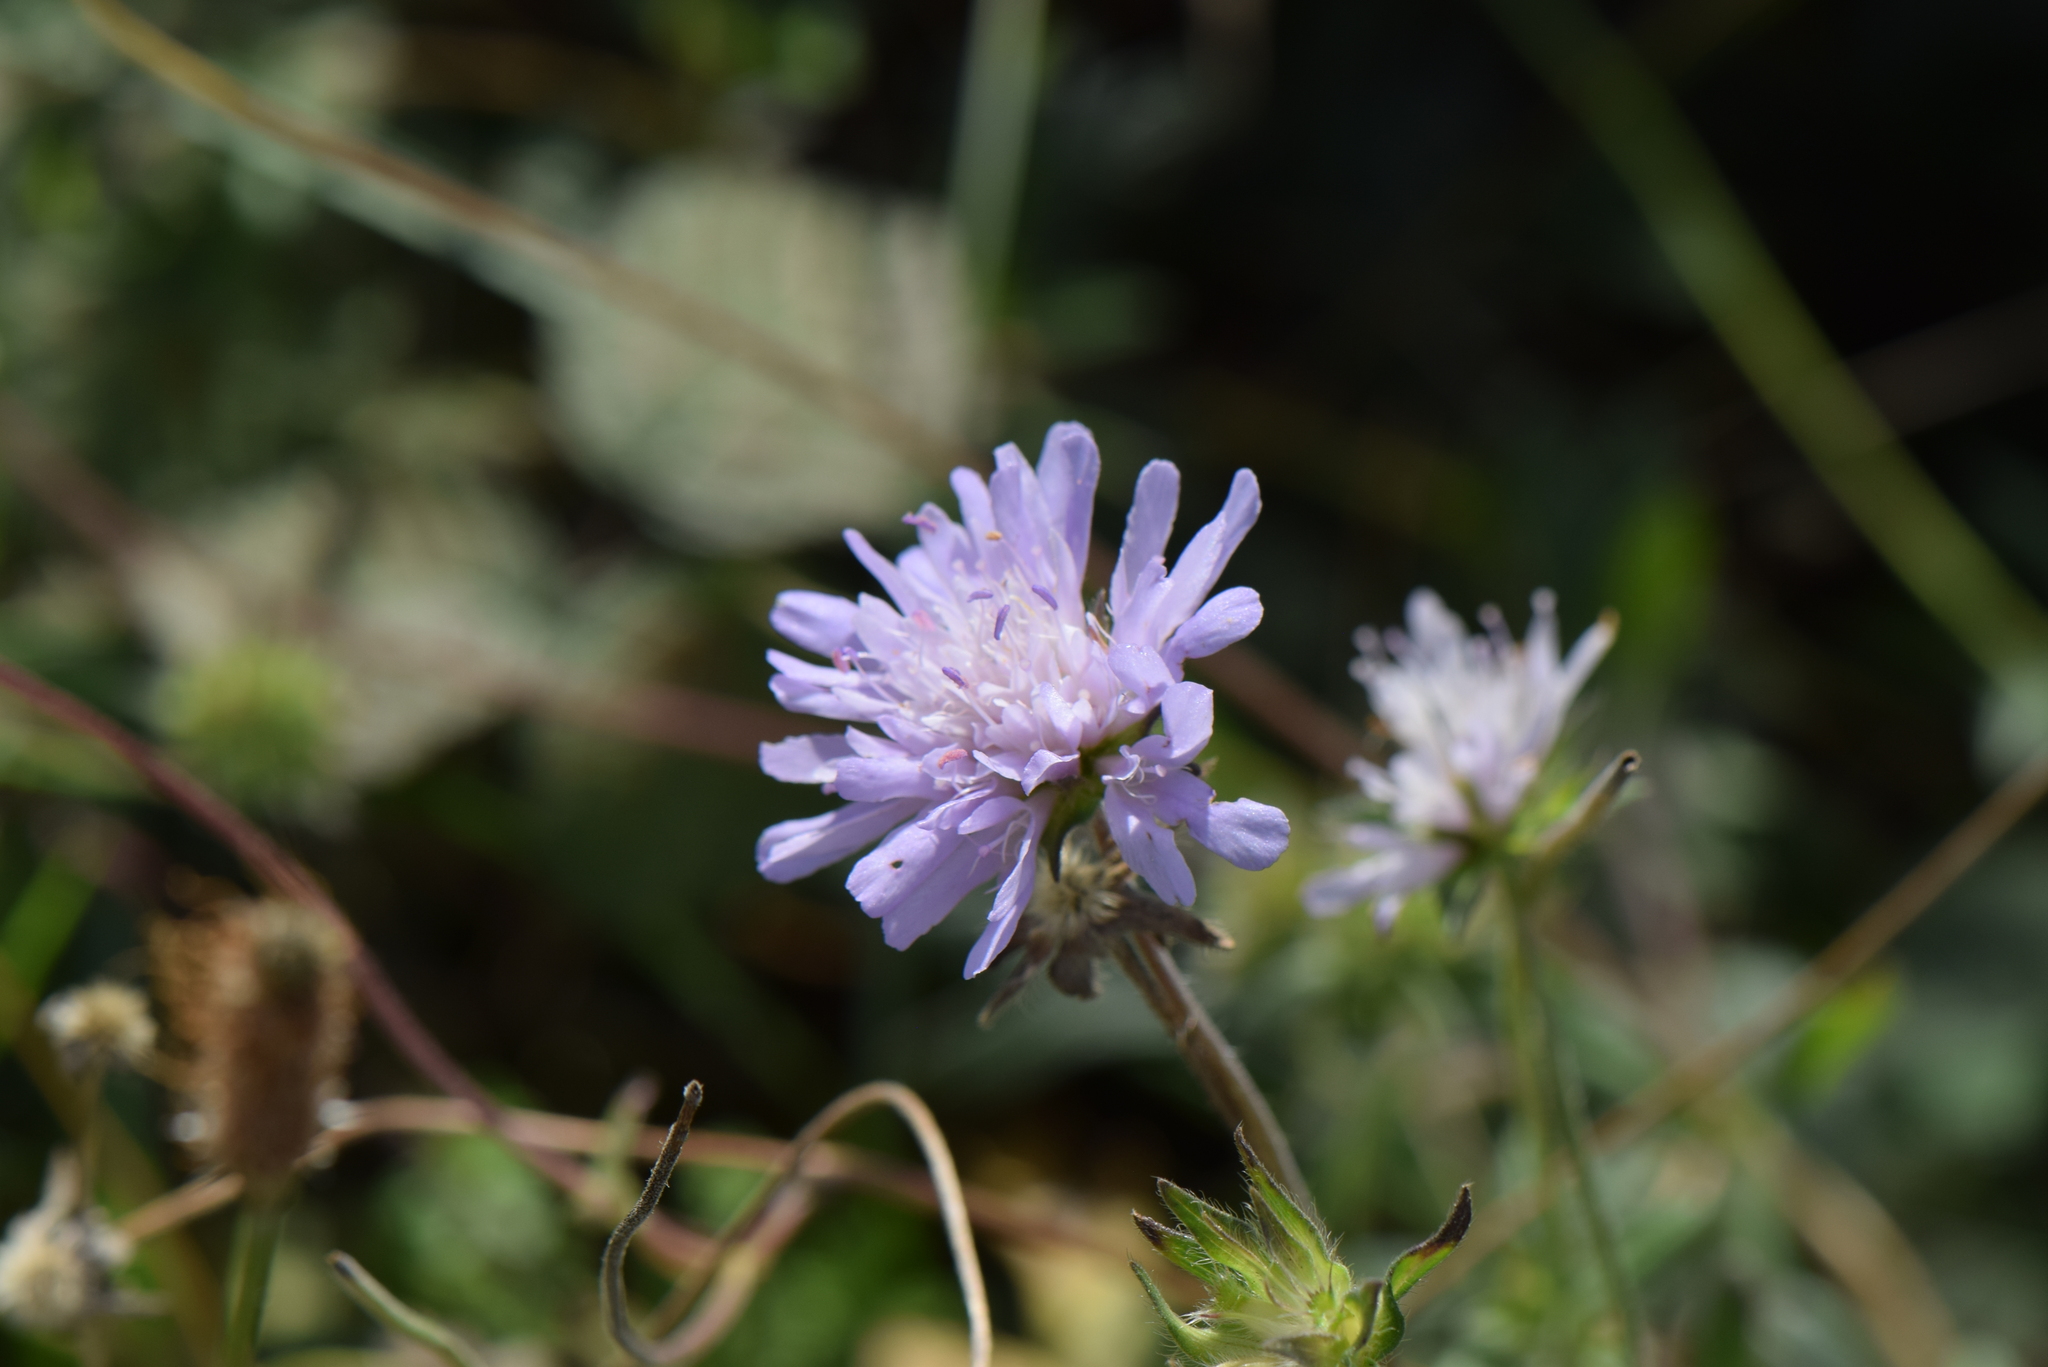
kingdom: Plantae
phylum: Tracheophyta
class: Magnoliopsida
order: Dipsacales
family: Caprifoliaceae
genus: Knautia
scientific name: Knautia arvensis
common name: Field scabiosa
